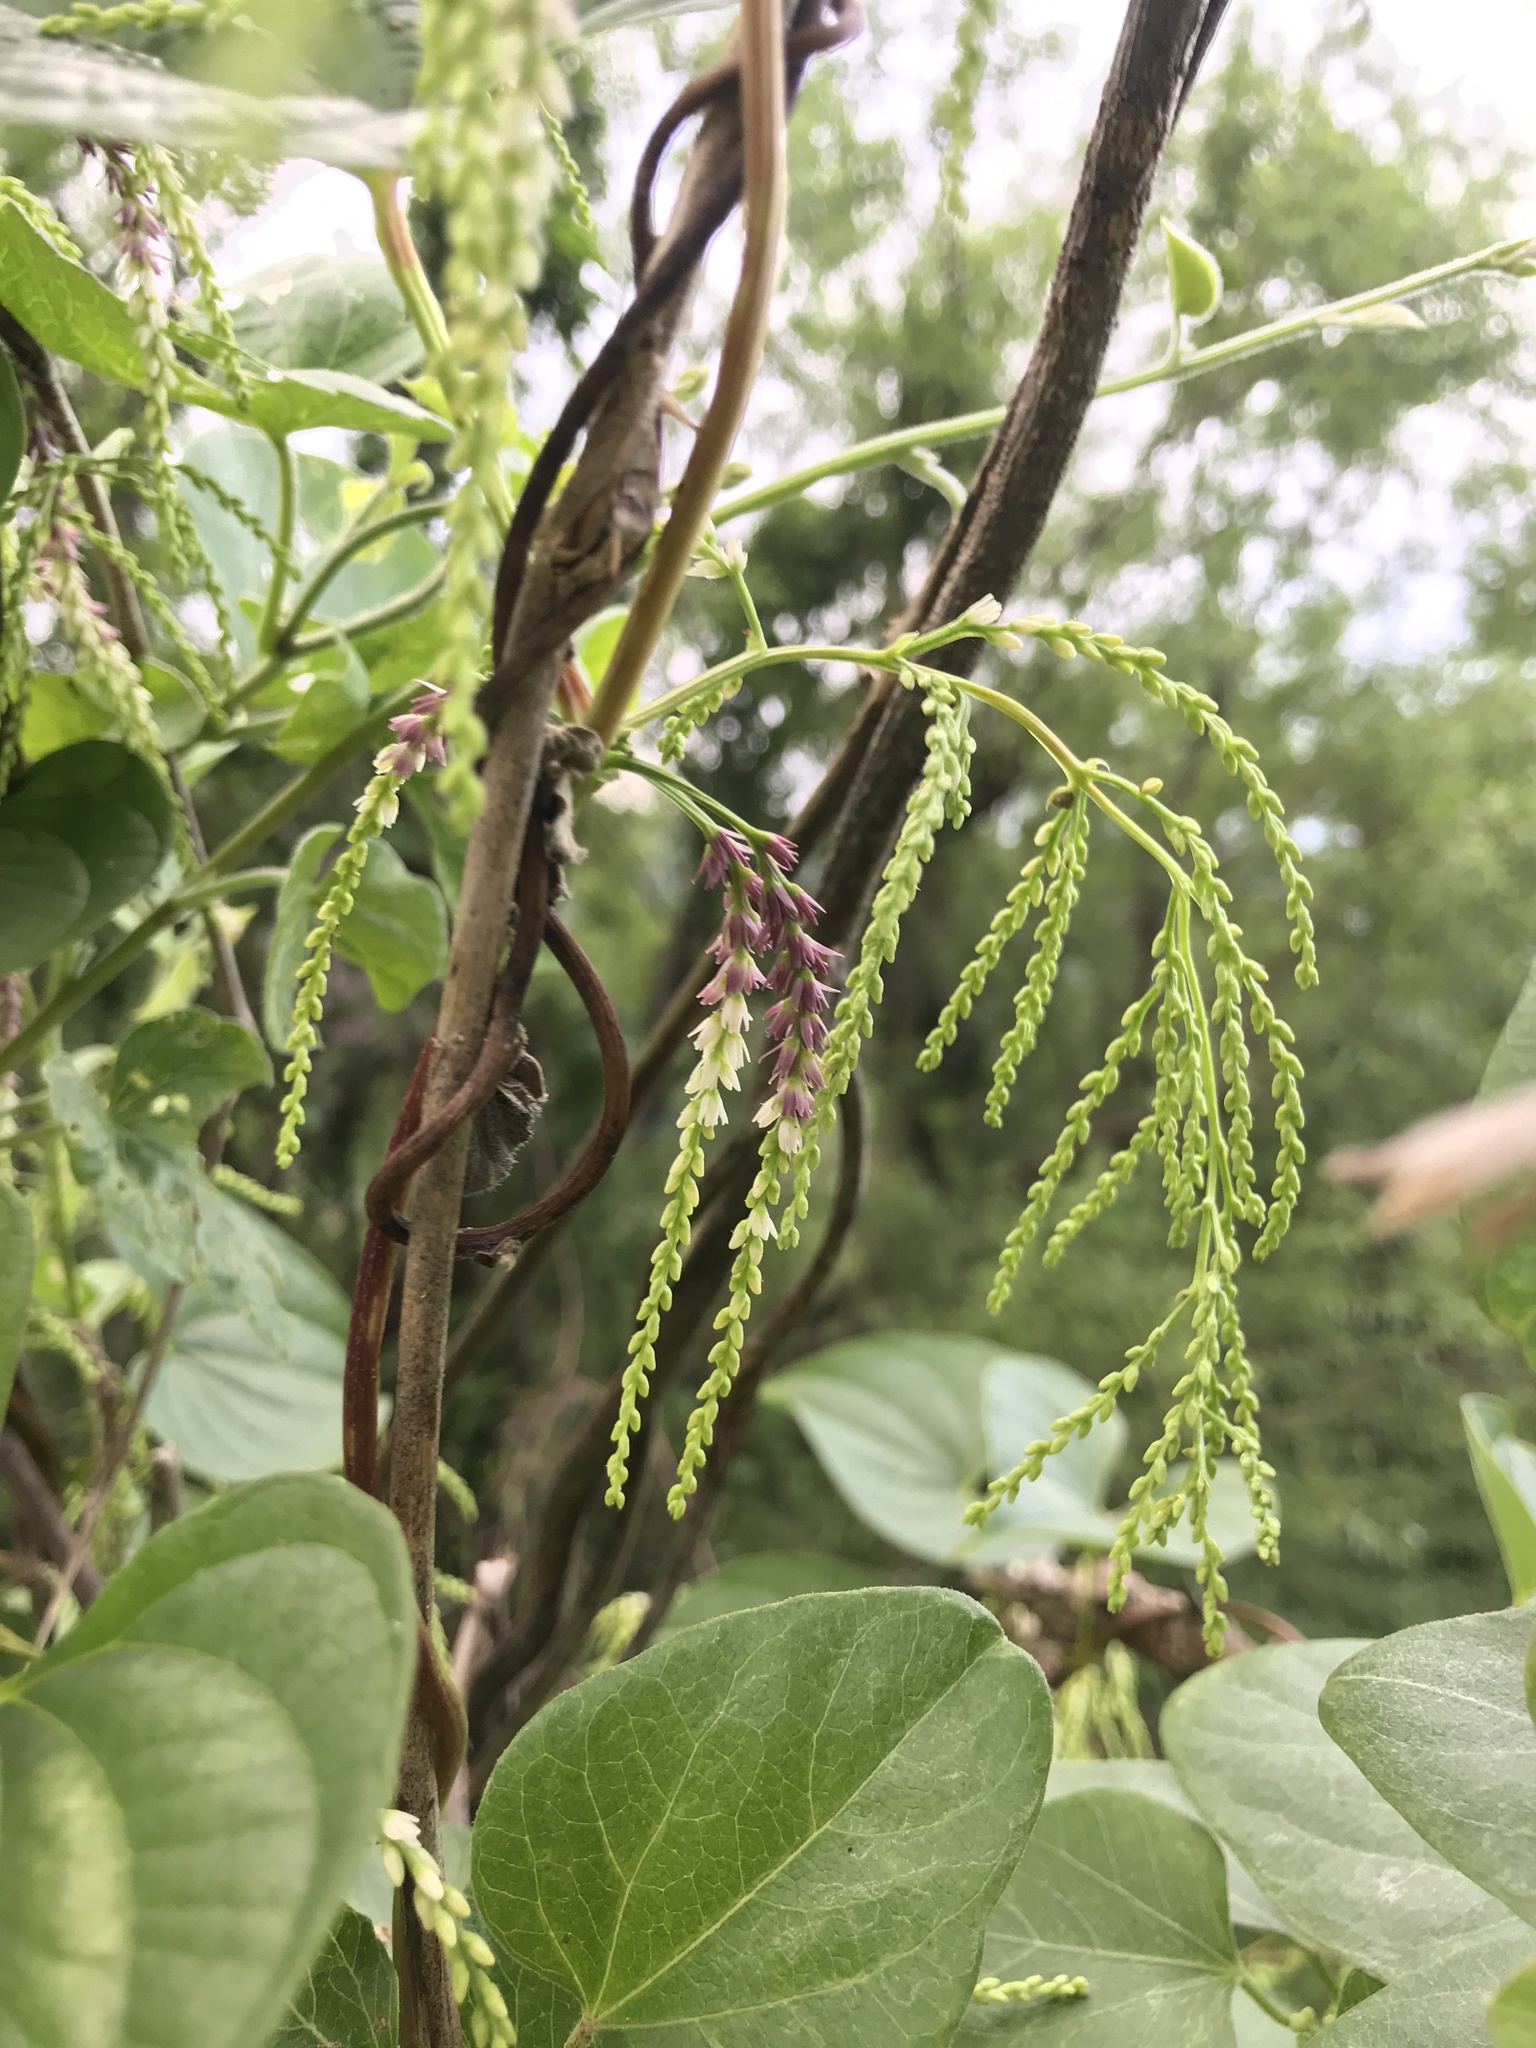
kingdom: Plantae
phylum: Tracheophyta
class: Liliopsida
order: Dioscoreales
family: Dioscoreaceae
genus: Dioscorea
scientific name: Dioscorea bulbifera
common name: Air yam
